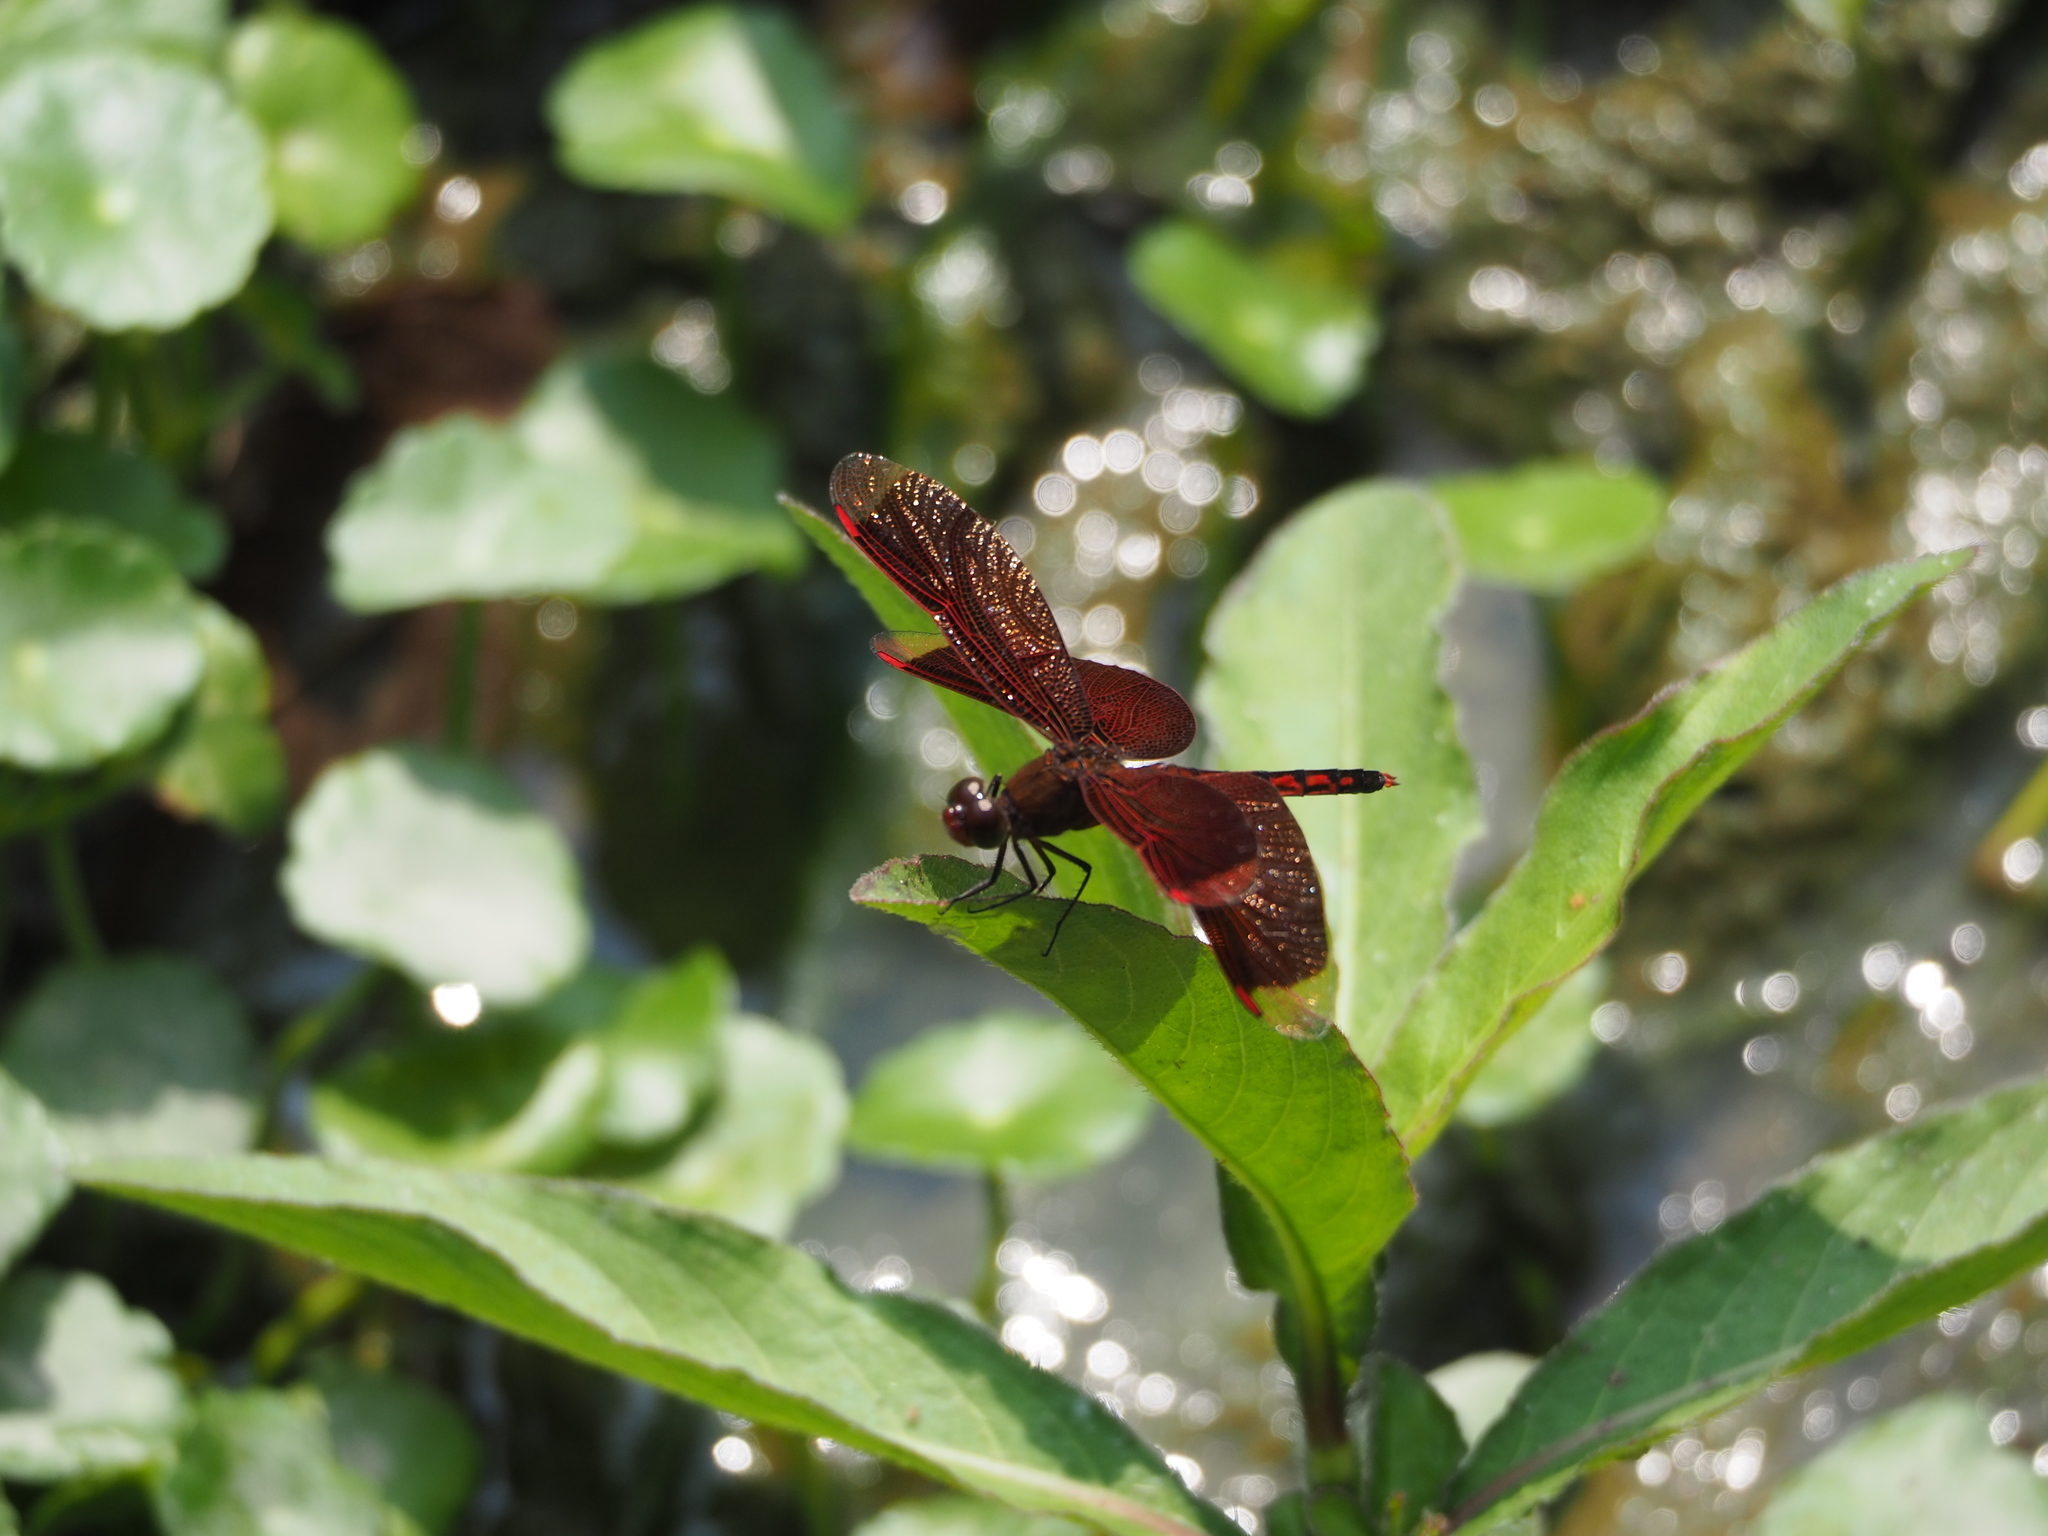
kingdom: Animalia
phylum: Arthropoda
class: Insecta
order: Odonata
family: Libellulidae
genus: Neurothemis
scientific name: Neurothemis taiwanensis
